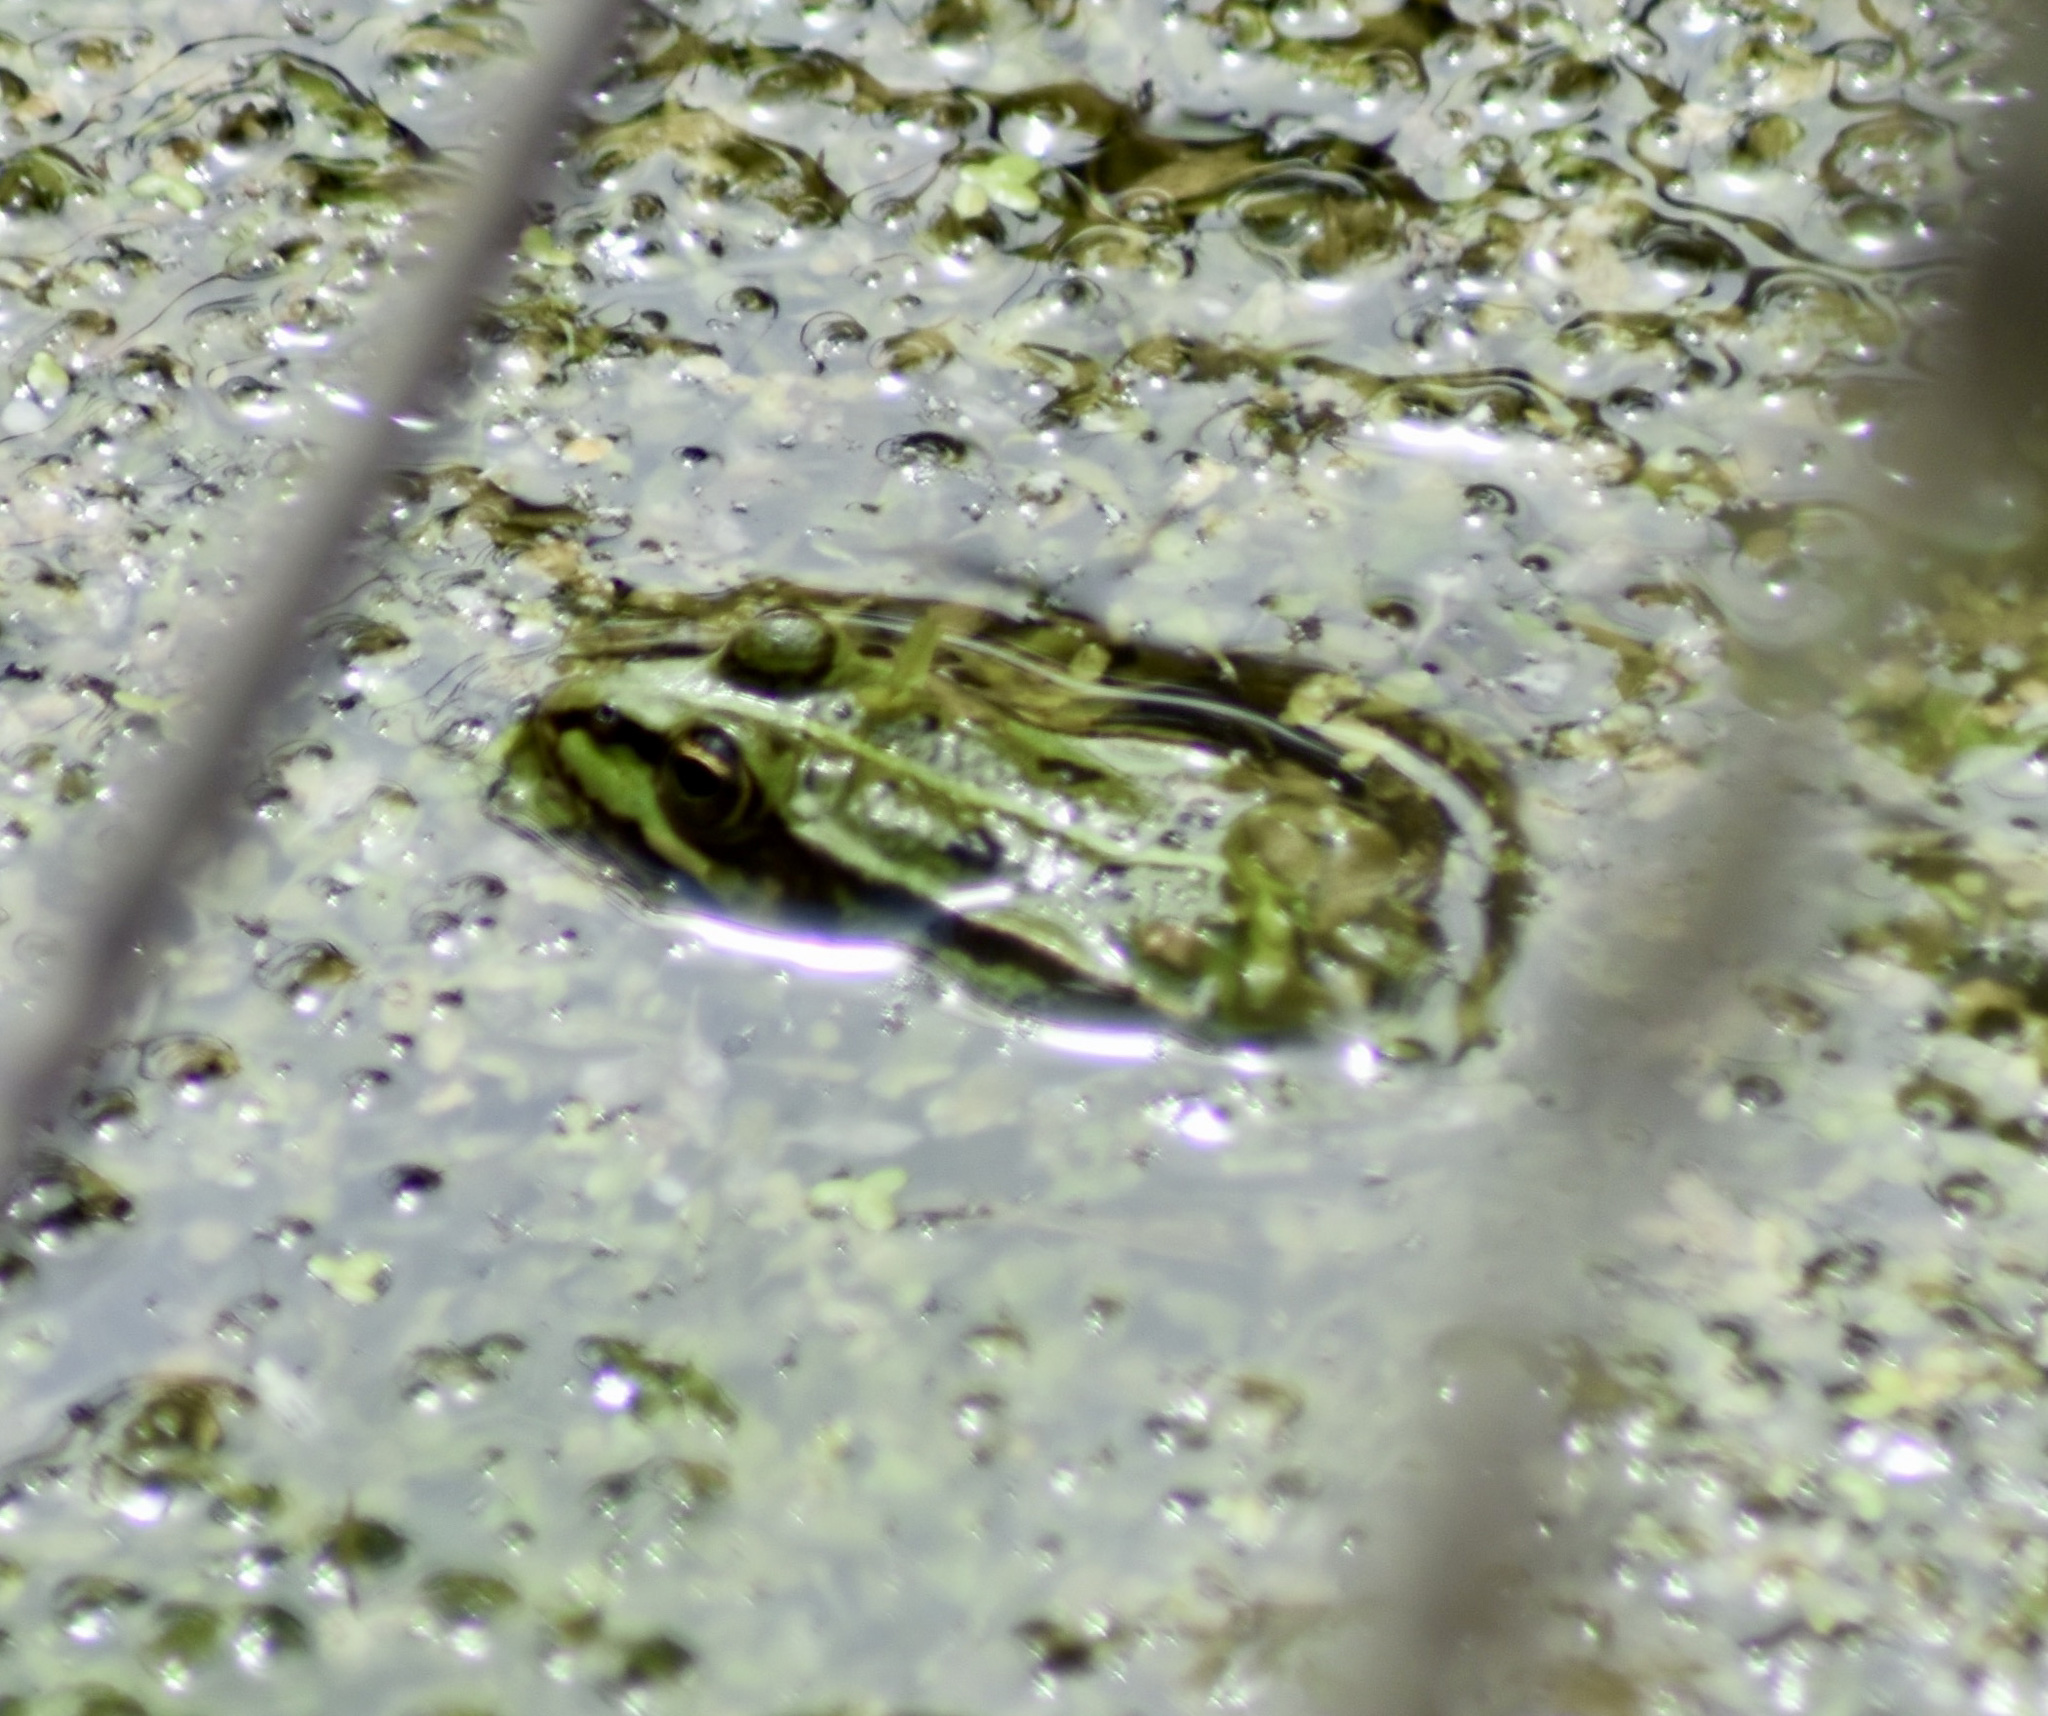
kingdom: Animalia
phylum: Chordata
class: Amphibia
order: Anura
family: Ranidae
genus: Pelophylax
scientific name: Pelophylax lessonae
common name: Pool frog
